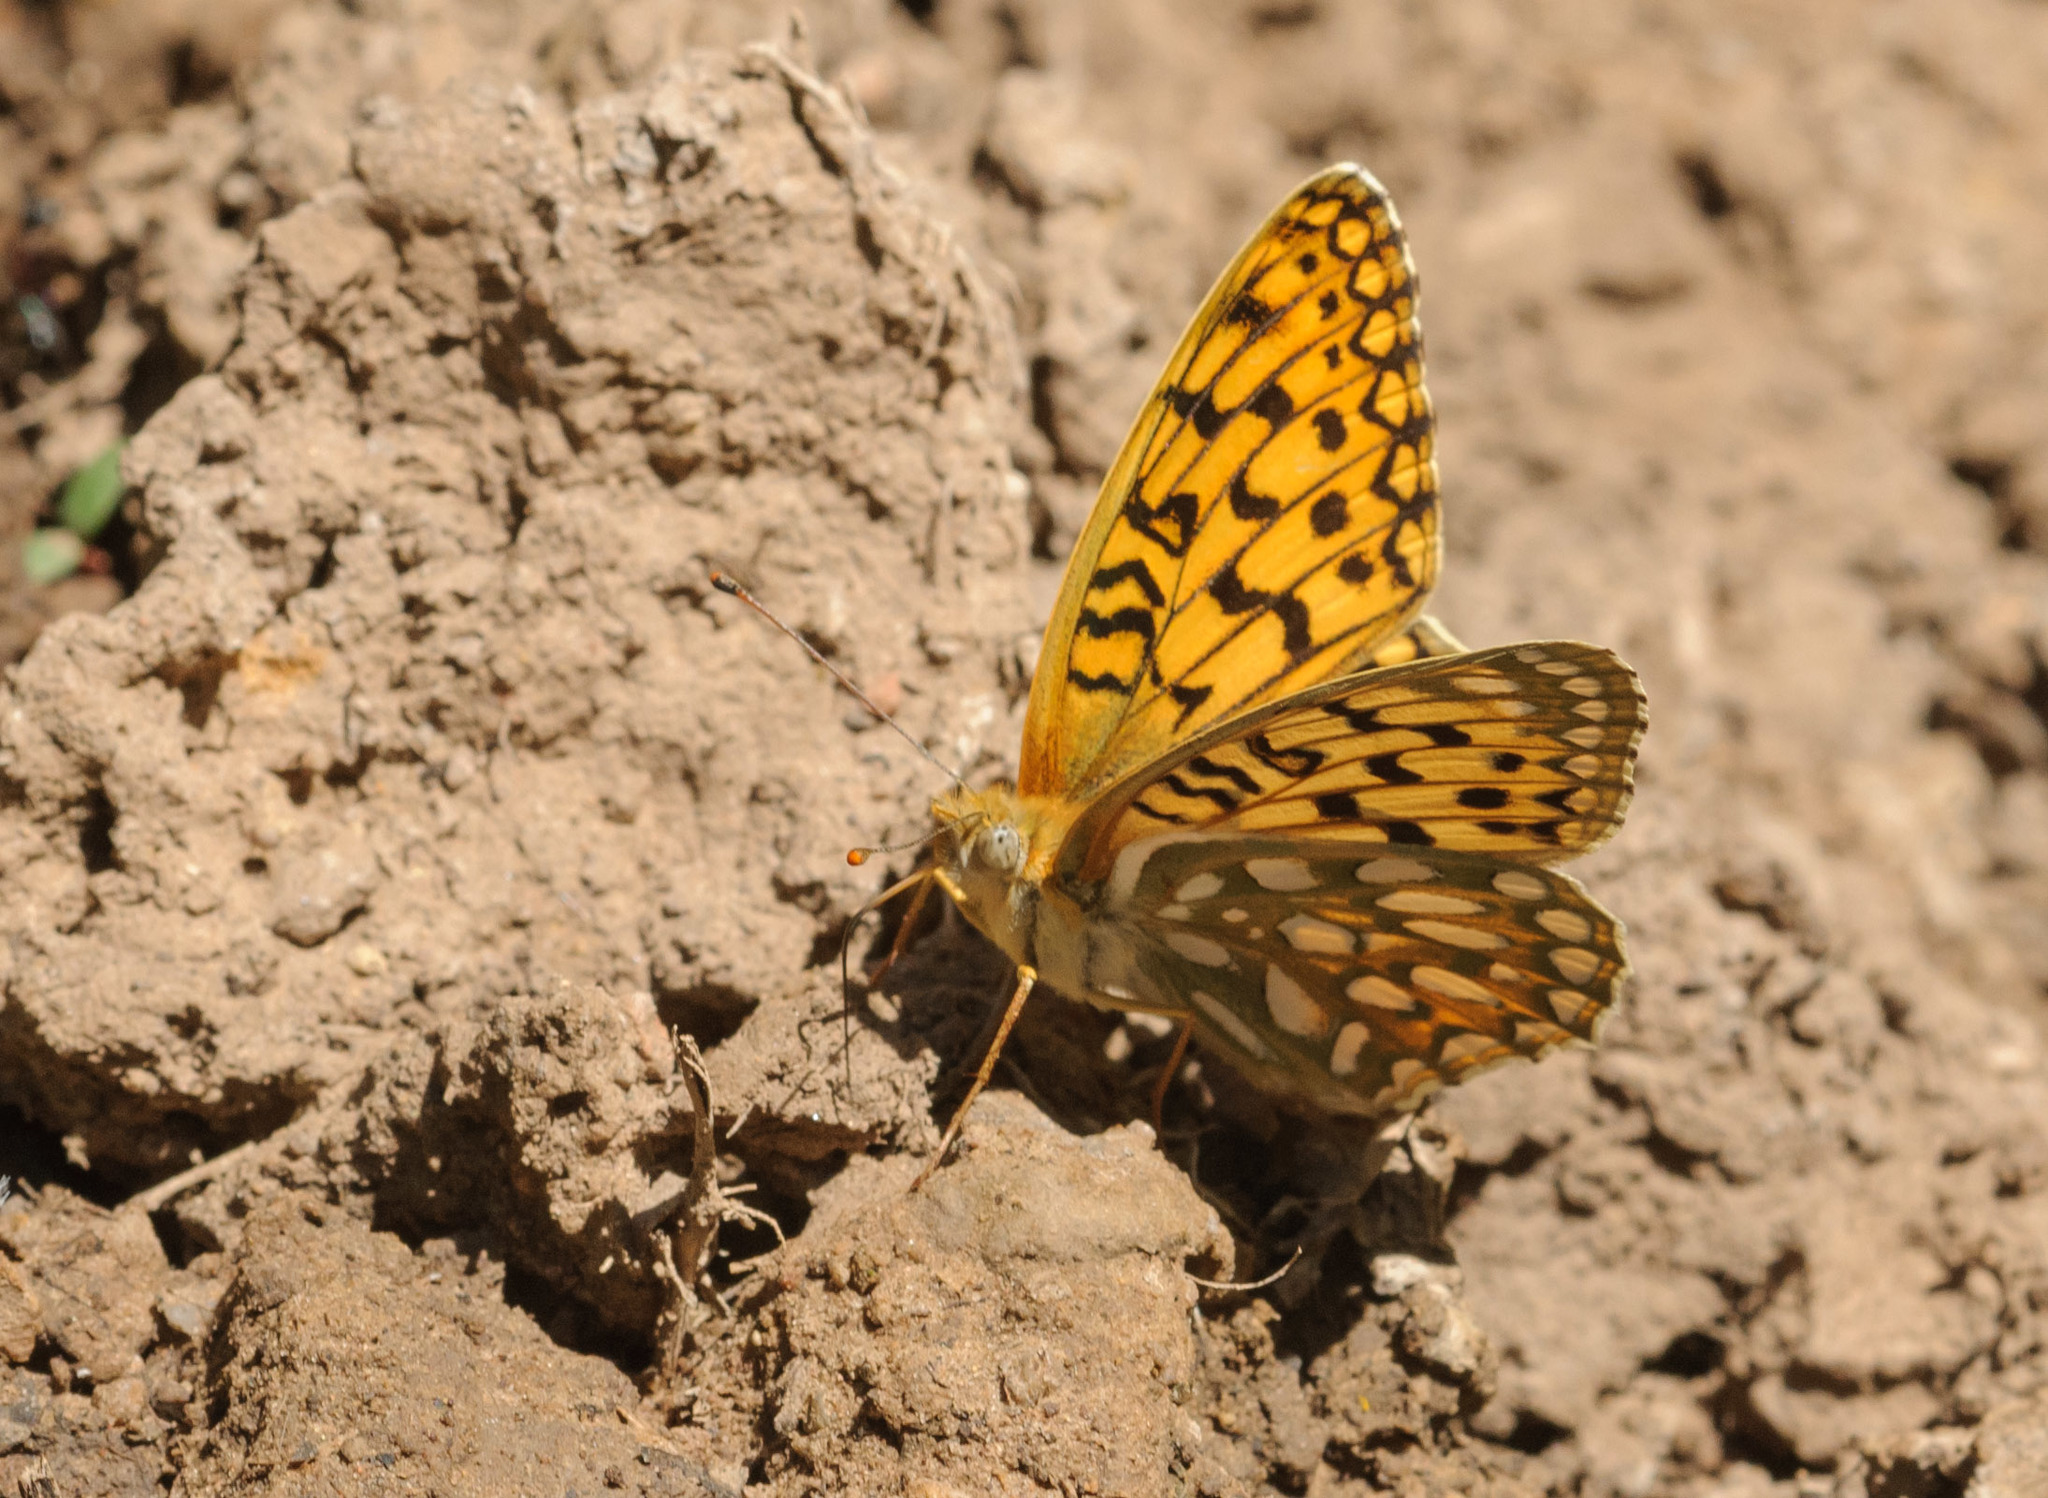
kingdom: Animalia
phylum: Arthropoda
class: Insecta
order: Lepidoptera
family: Nymphalidae
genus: Speyeria
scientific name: Speyeria callippe
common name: Callippe fritillary
